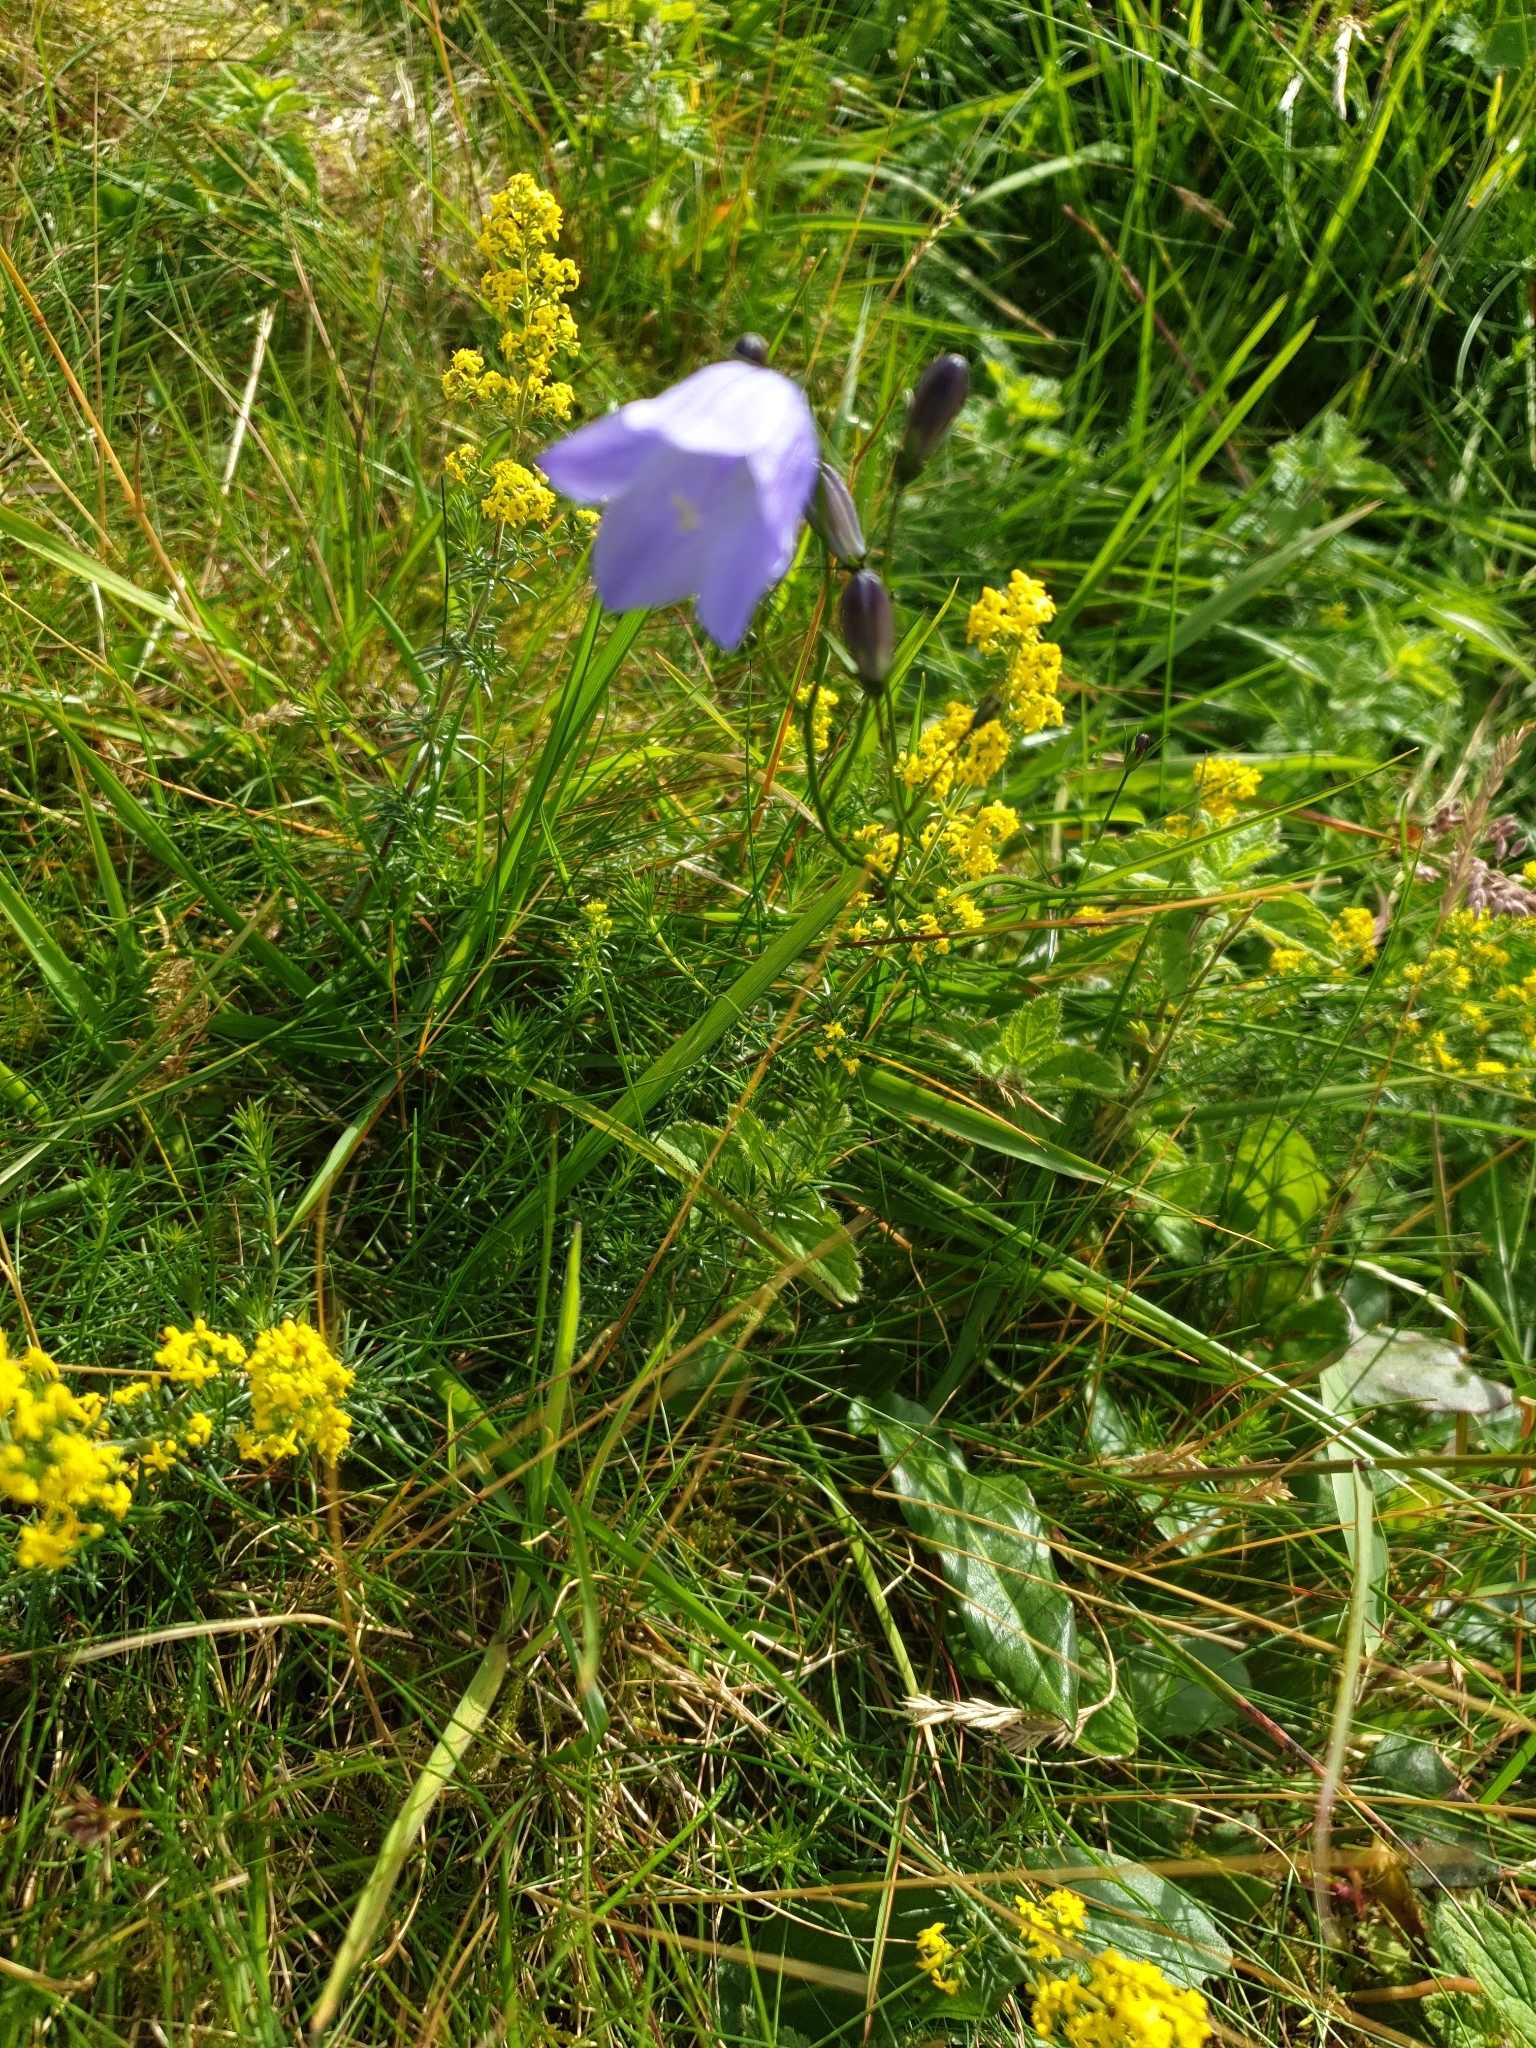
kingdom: Plantae
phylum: Tracheophyta
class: Magnoliopsida
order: Asterales
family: Campanulaceae
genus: Campanula
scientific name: Campanula rotundifolia
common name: Harebell
